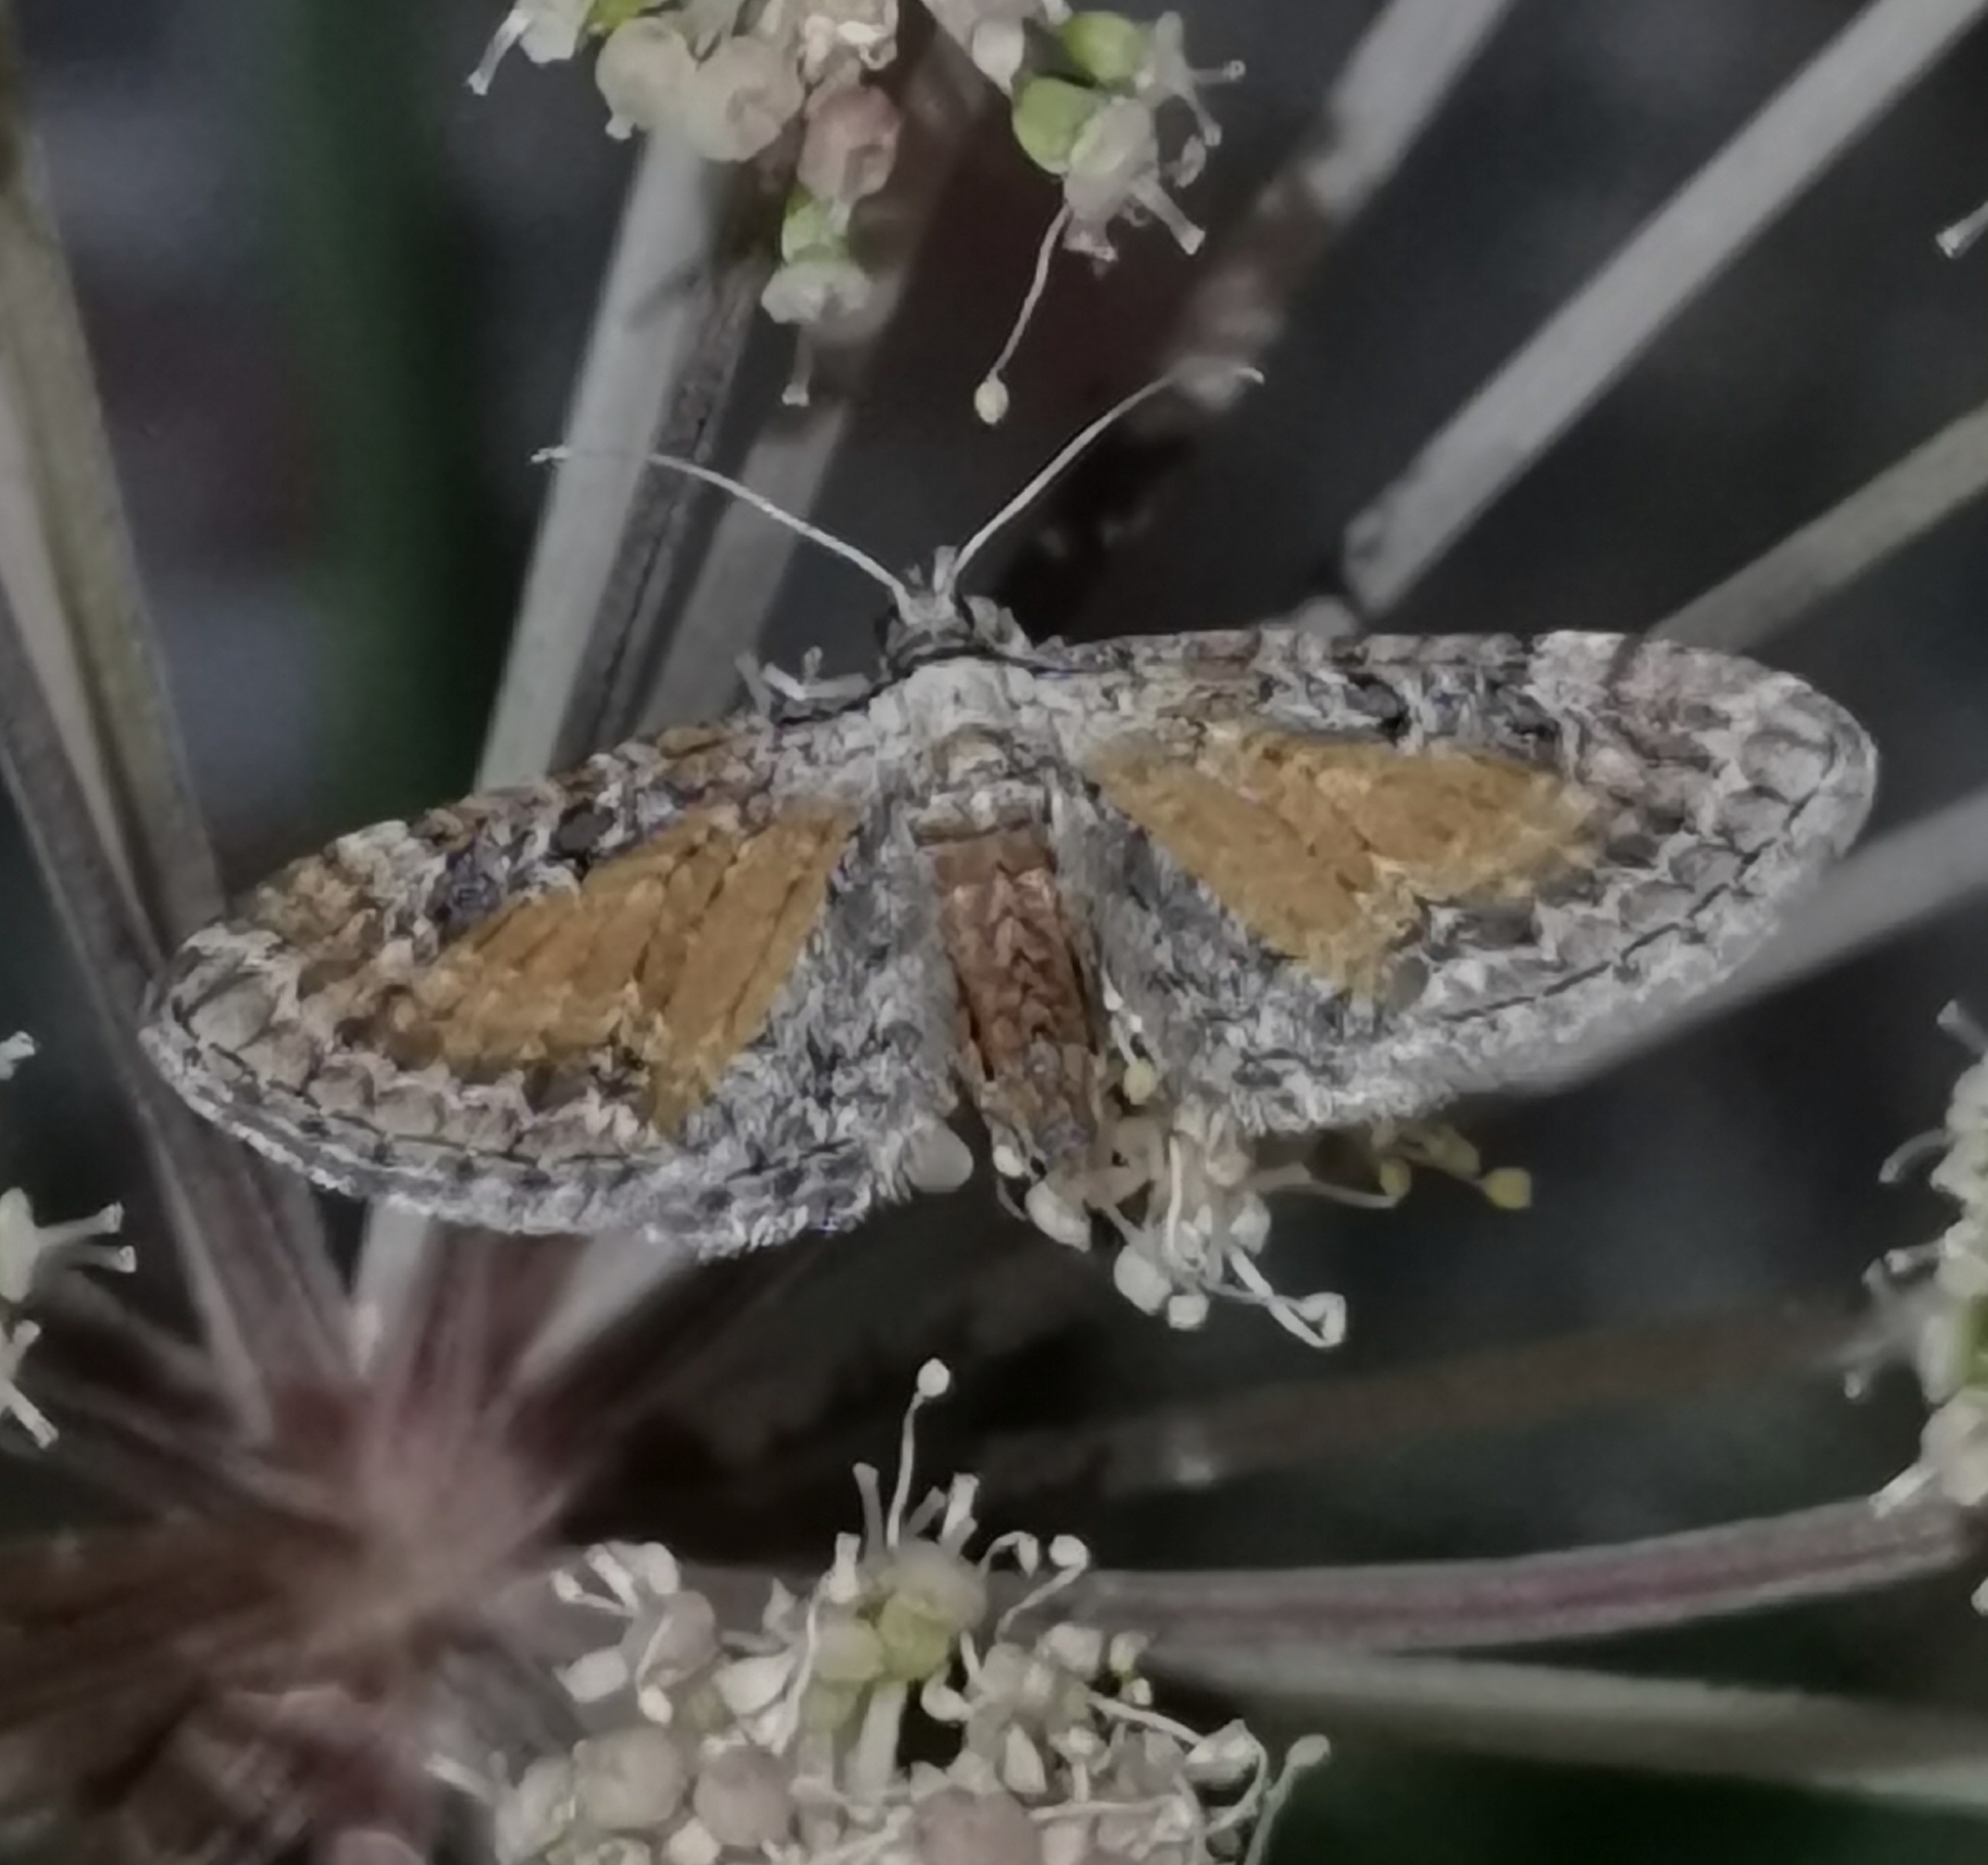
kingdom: Animalia
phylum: Arthropoda
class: Insecta
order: Lepidoptera
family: Geometridae
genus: Eupithecia
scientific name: Eupithecia icterata
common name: Tawny speckled pug
